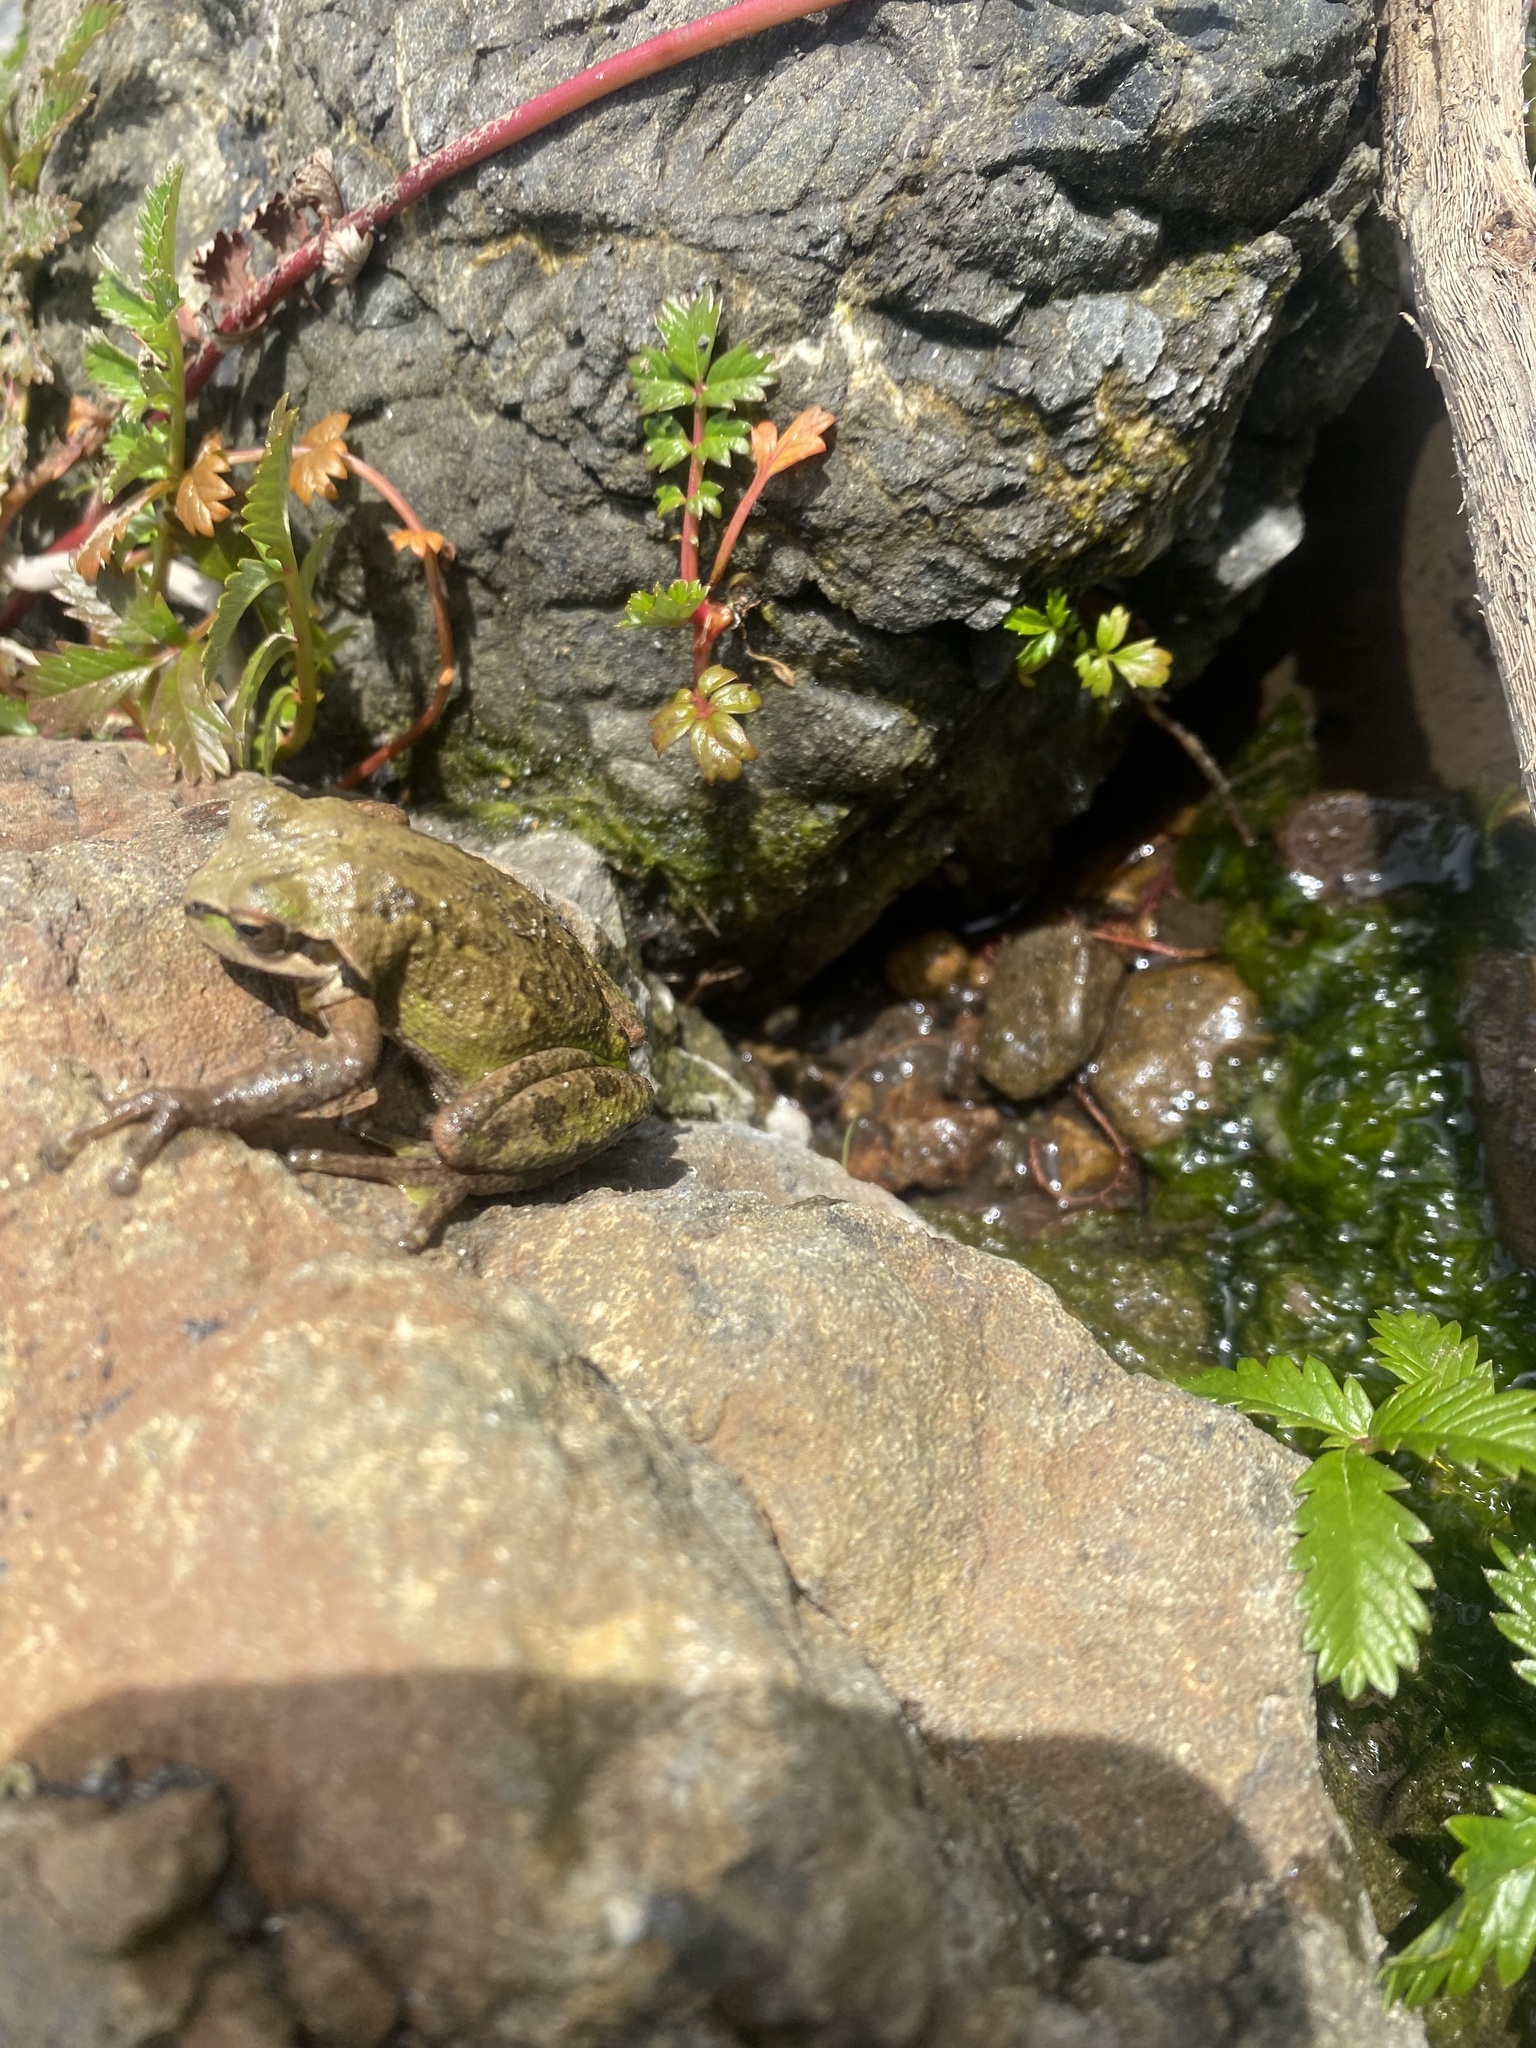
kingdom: Animalia
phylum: Chordata
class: Amphibia
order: Anura
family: Hylidae
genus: Pseudacris
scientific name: Pseudacris regilla
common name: Pacific chorus frog
